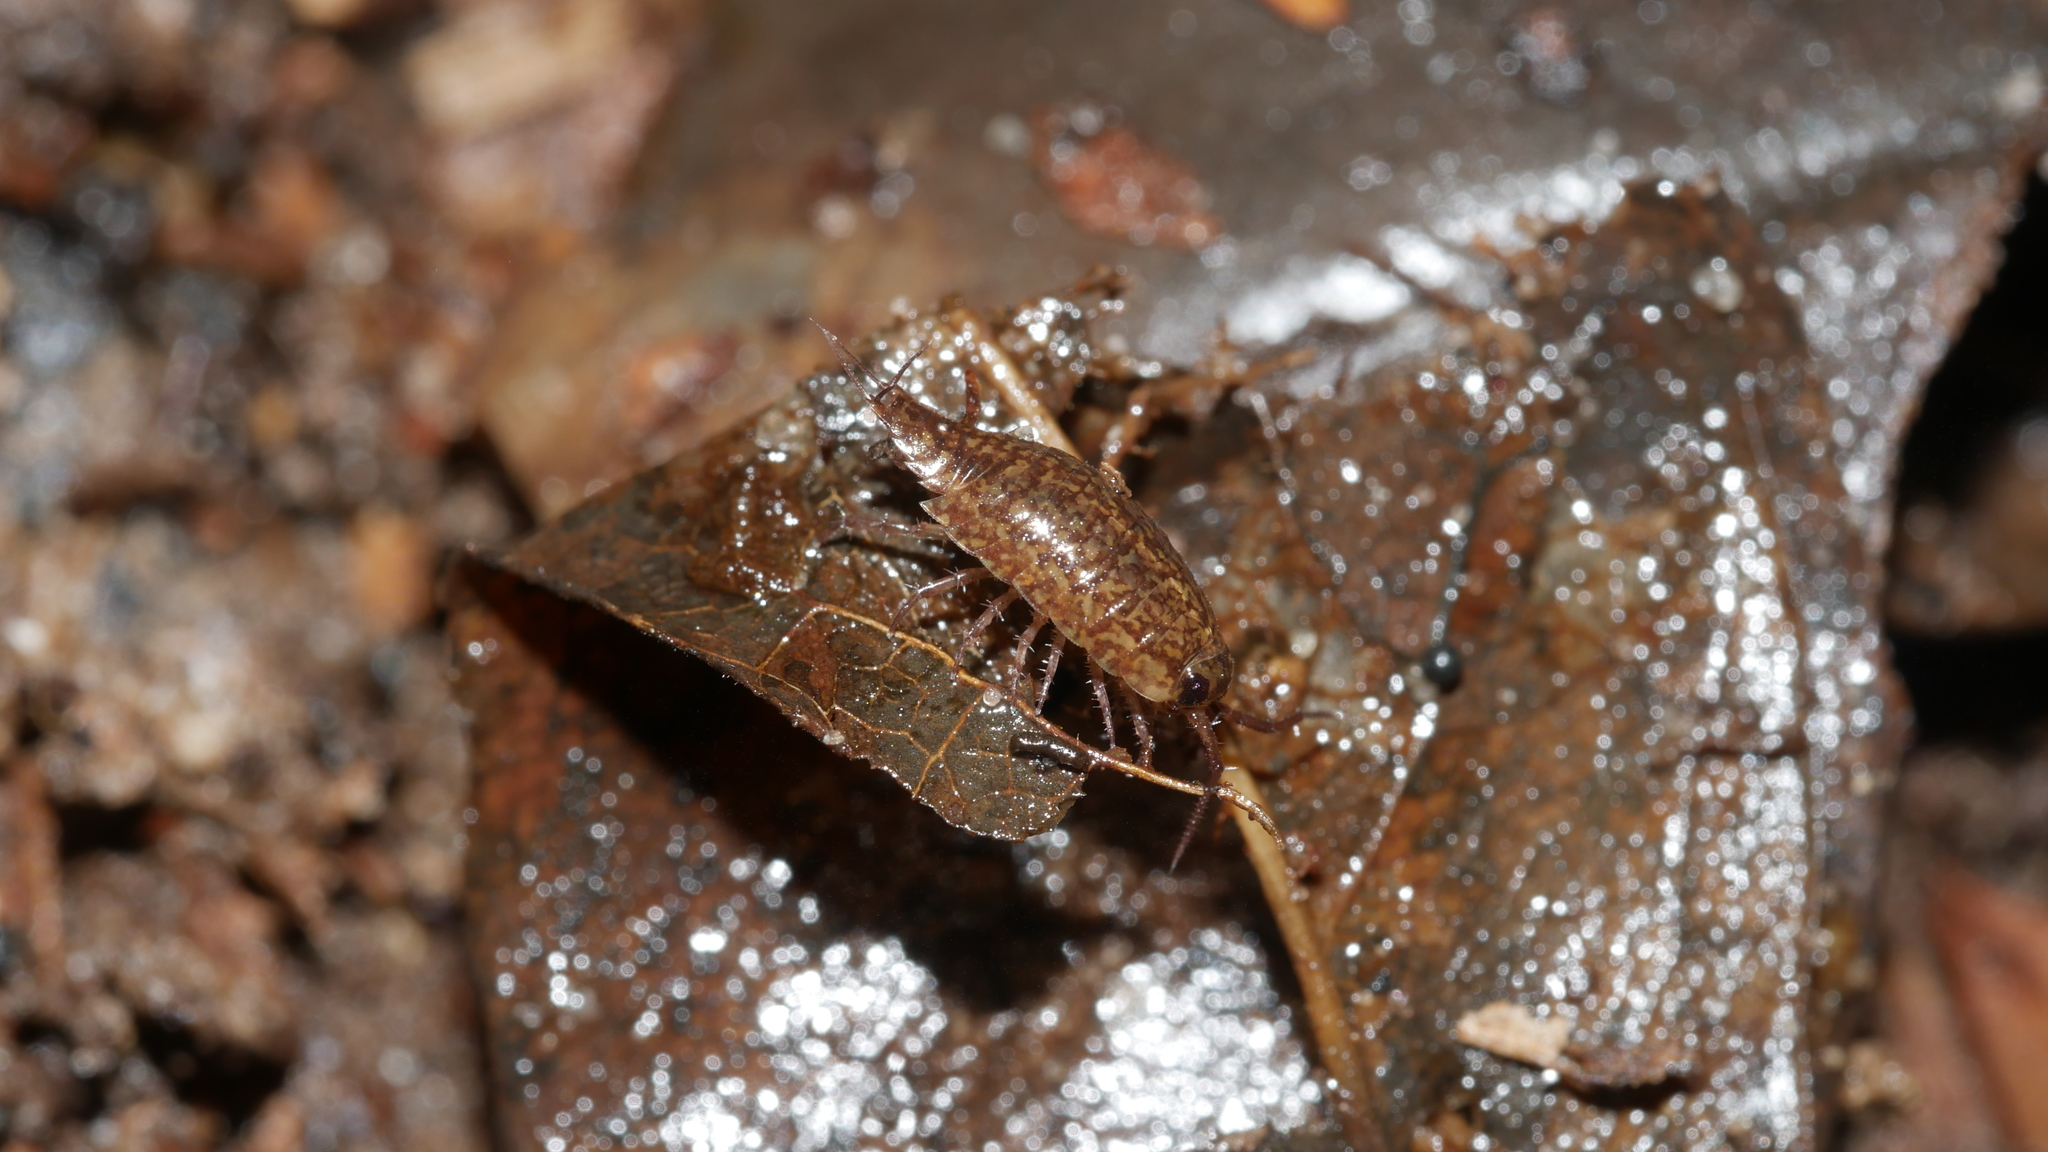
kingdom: Animalia
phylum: Arthropoda
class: Malacostraca
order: Isopoda
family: Ligiidae
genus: Ligidium
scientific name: Ligidium elrodii
